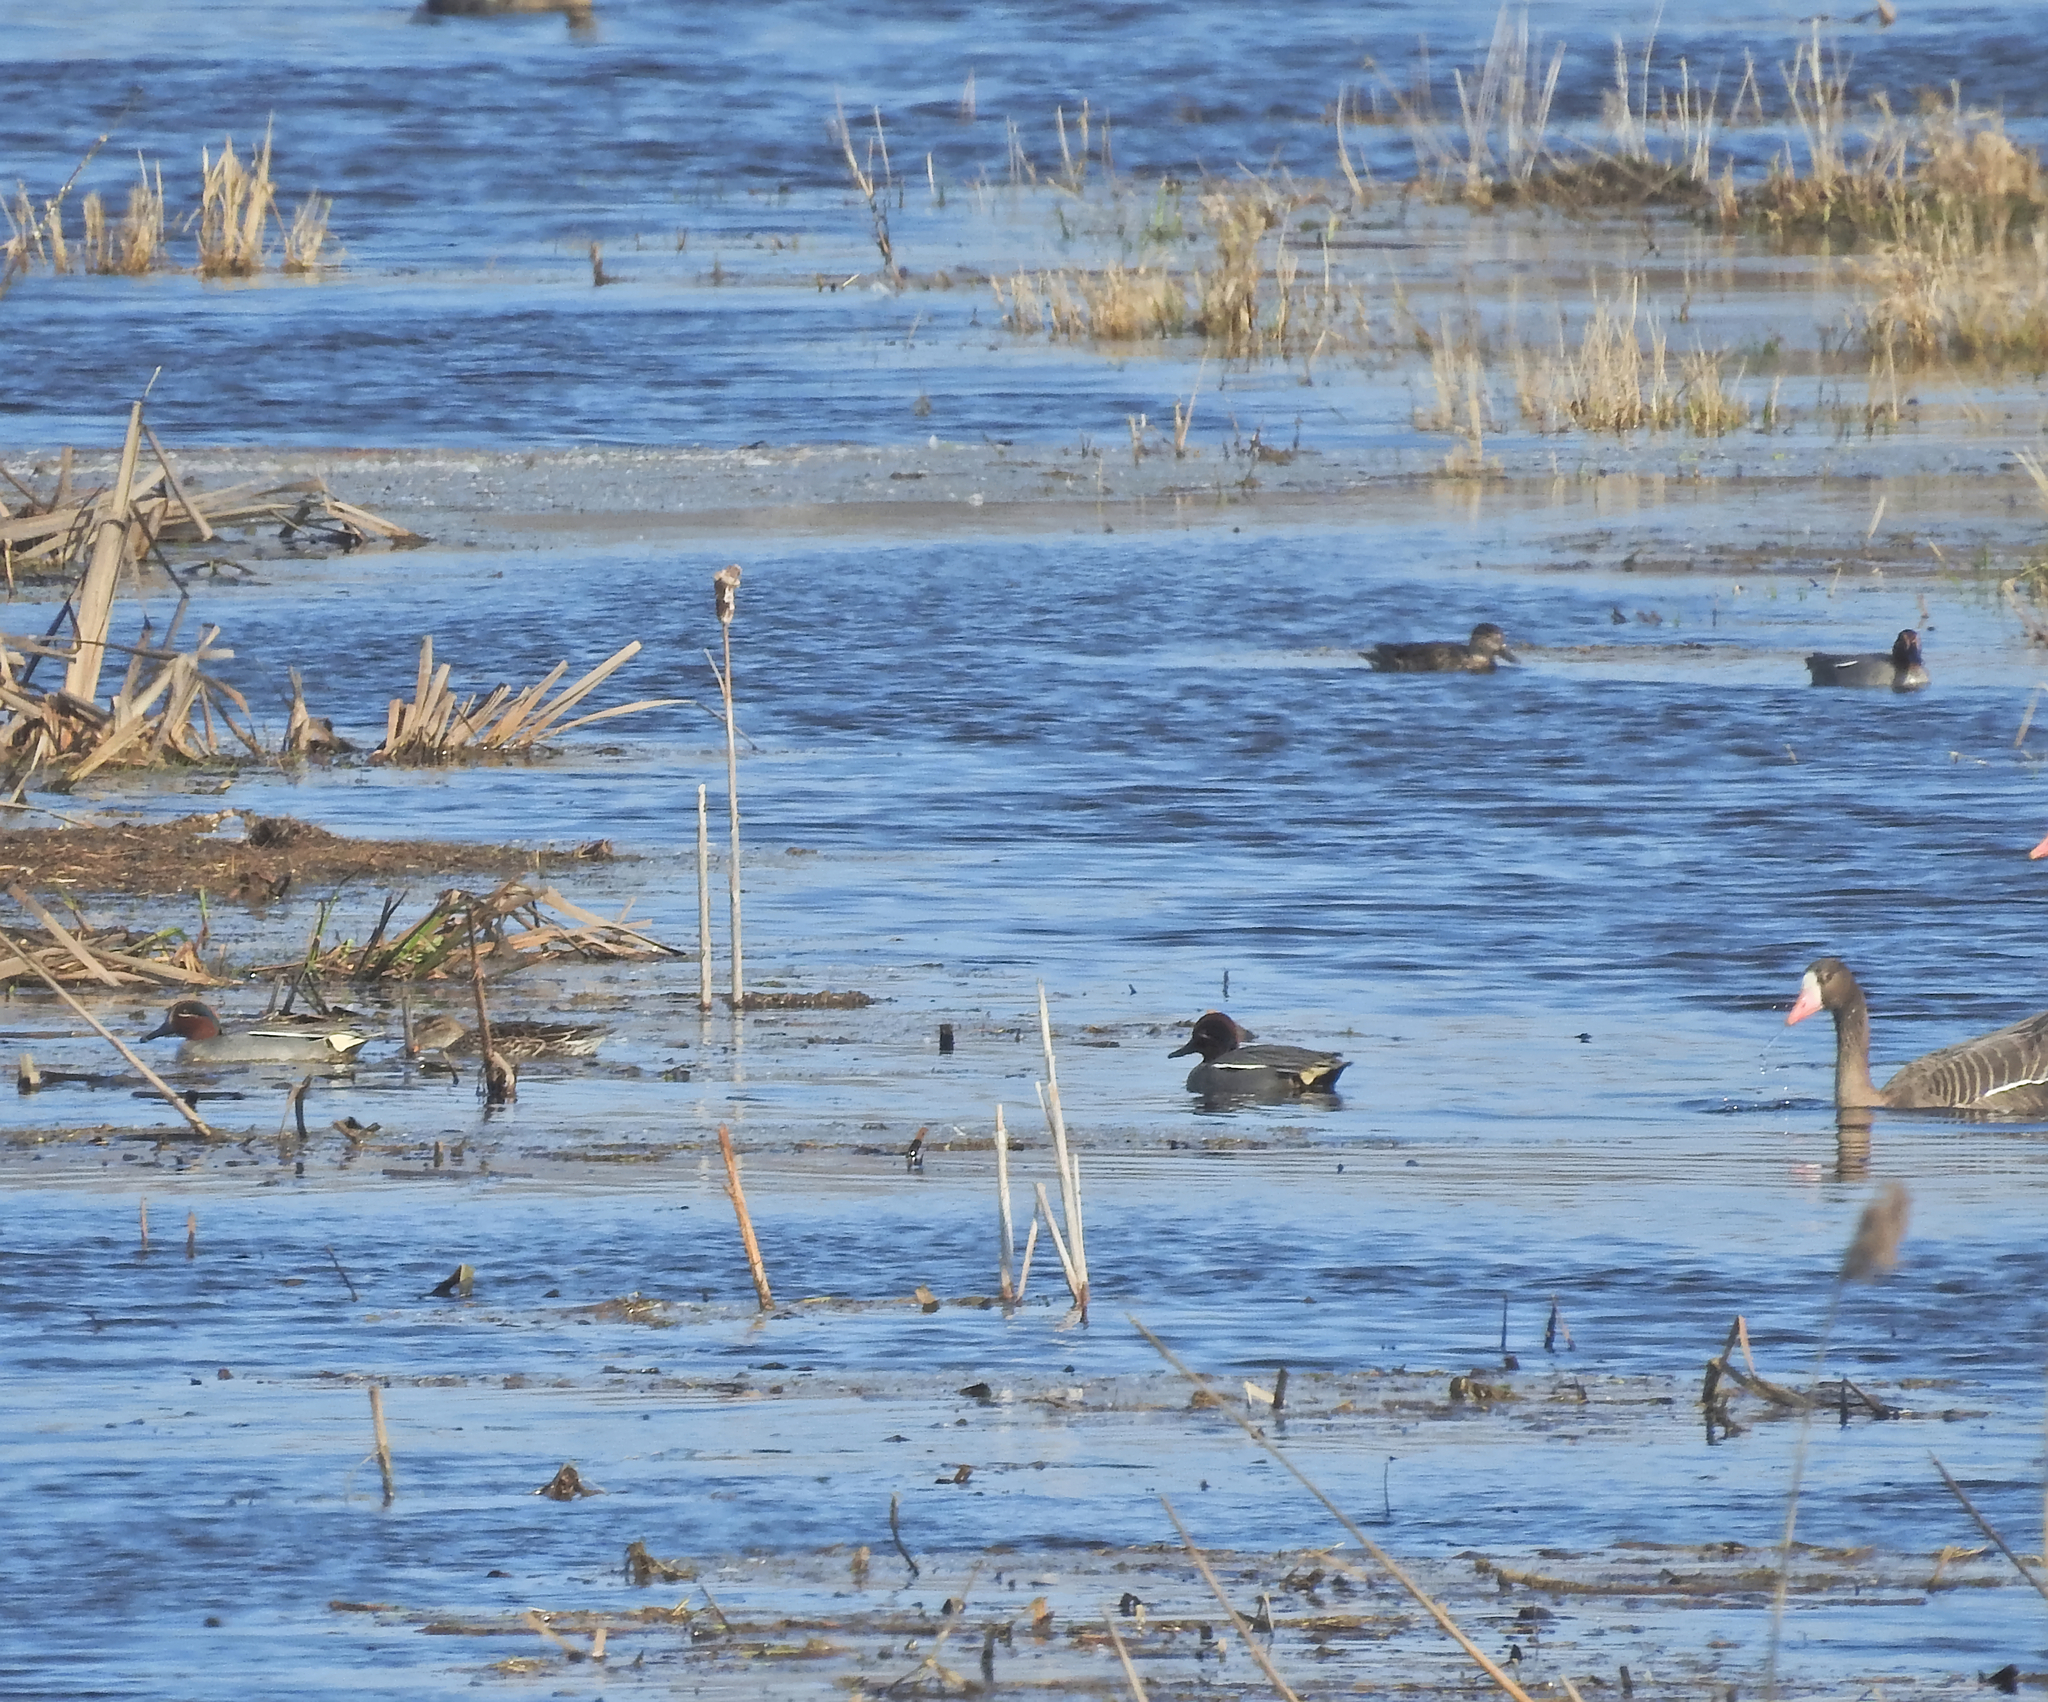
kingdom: Animalia
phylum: Chordata
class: Aves
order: Anseriformes
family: Anatidae
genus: Anas
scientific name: Anas crecca
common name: Eurasian teal
